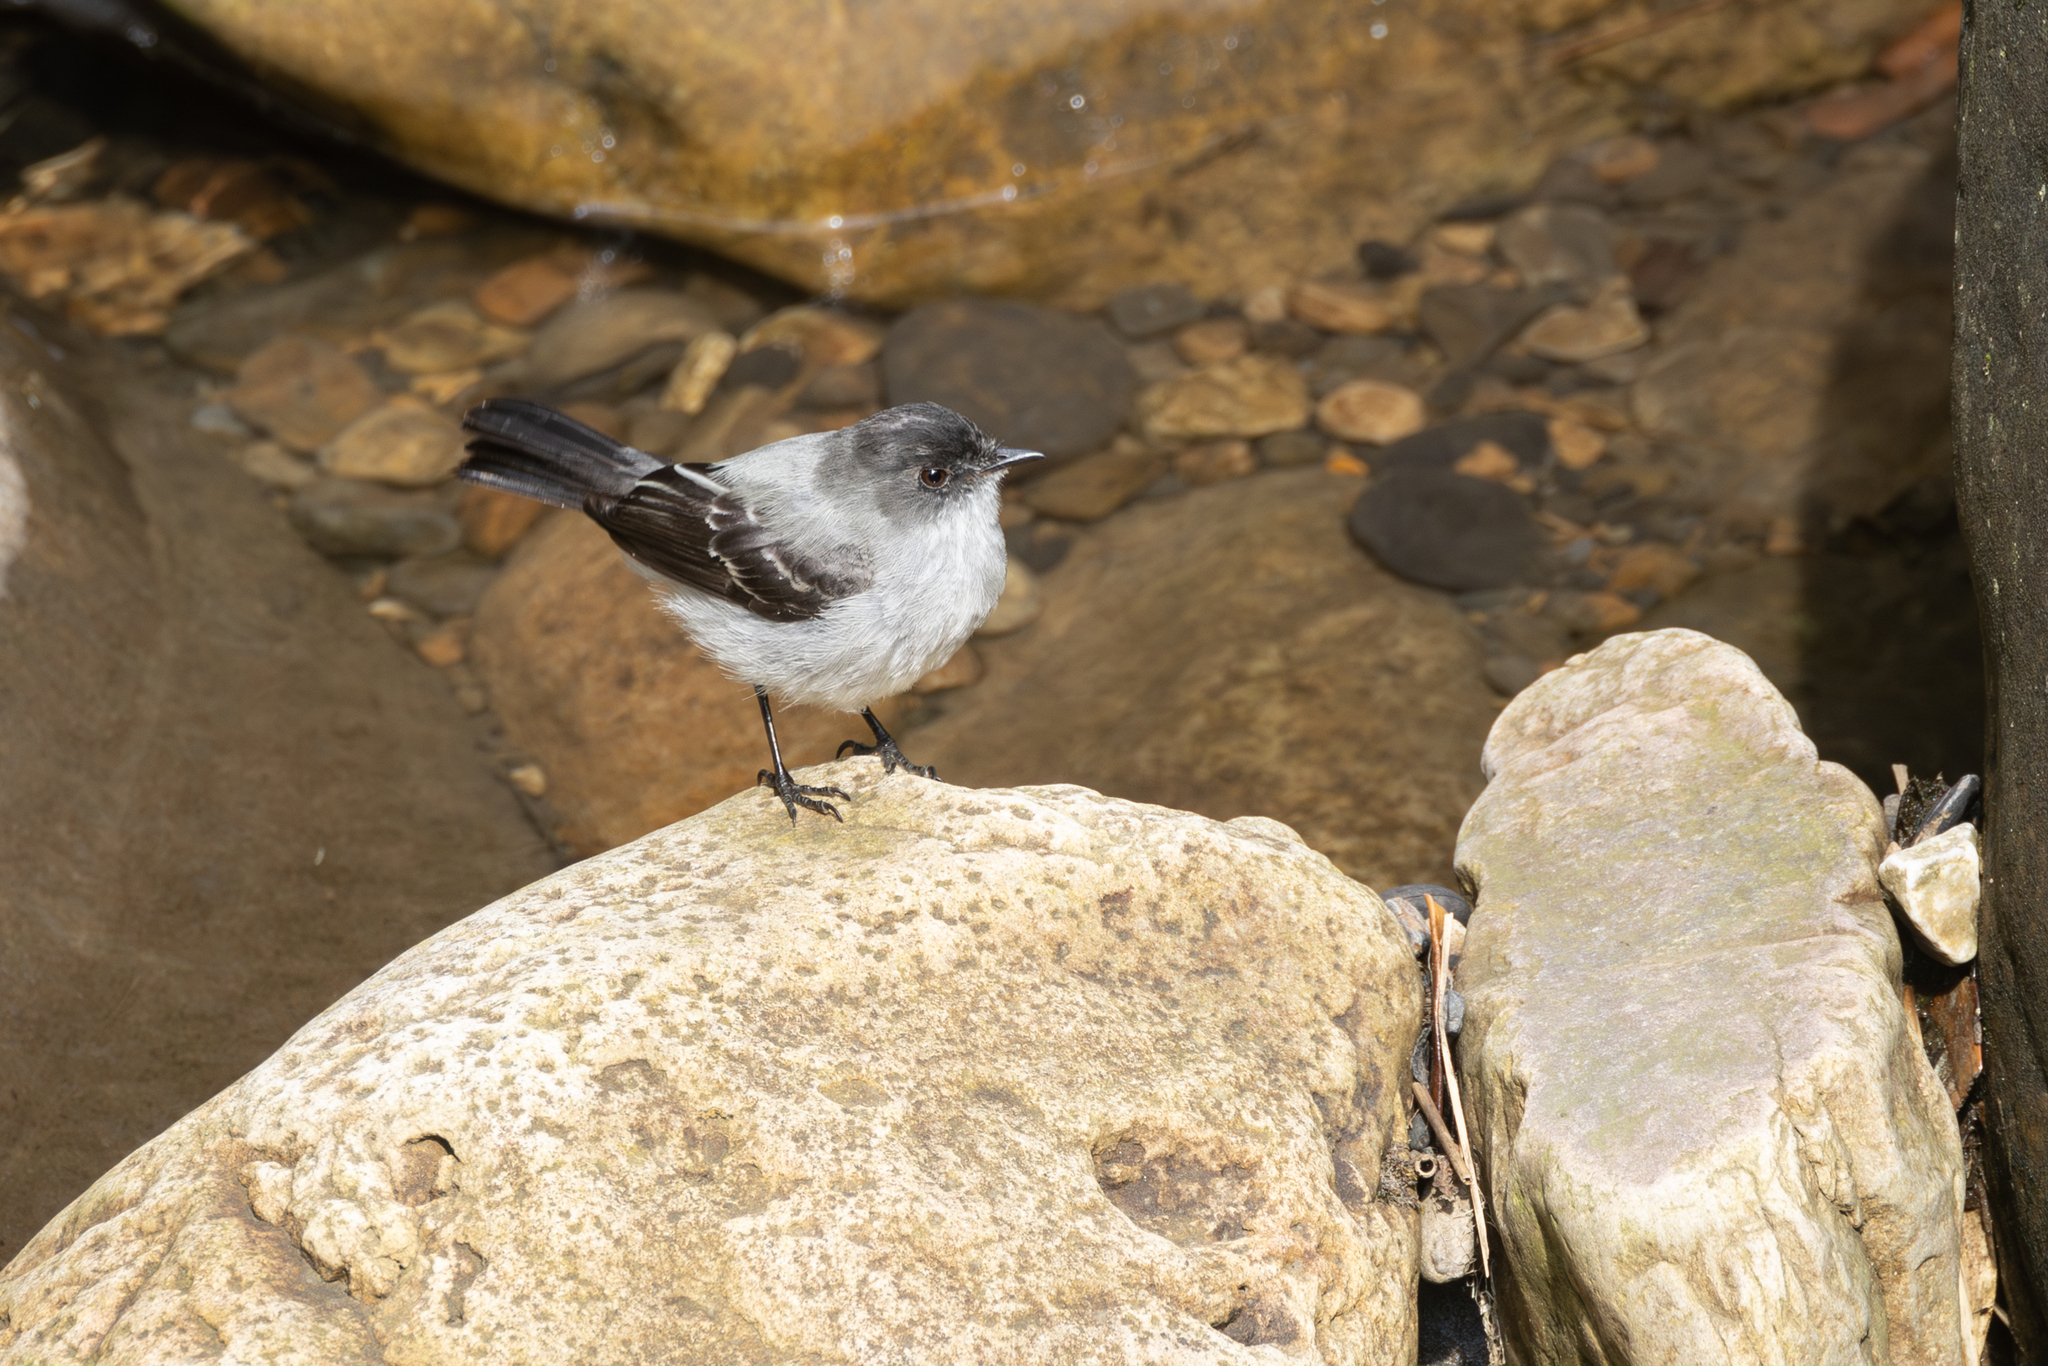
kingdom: Animalia
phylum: Chordata
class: Aves
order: Passeriformes
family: Tyrannidae
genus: Serpophaga
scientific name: Serpophaga cinerea
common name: Torrent tyrannulet
